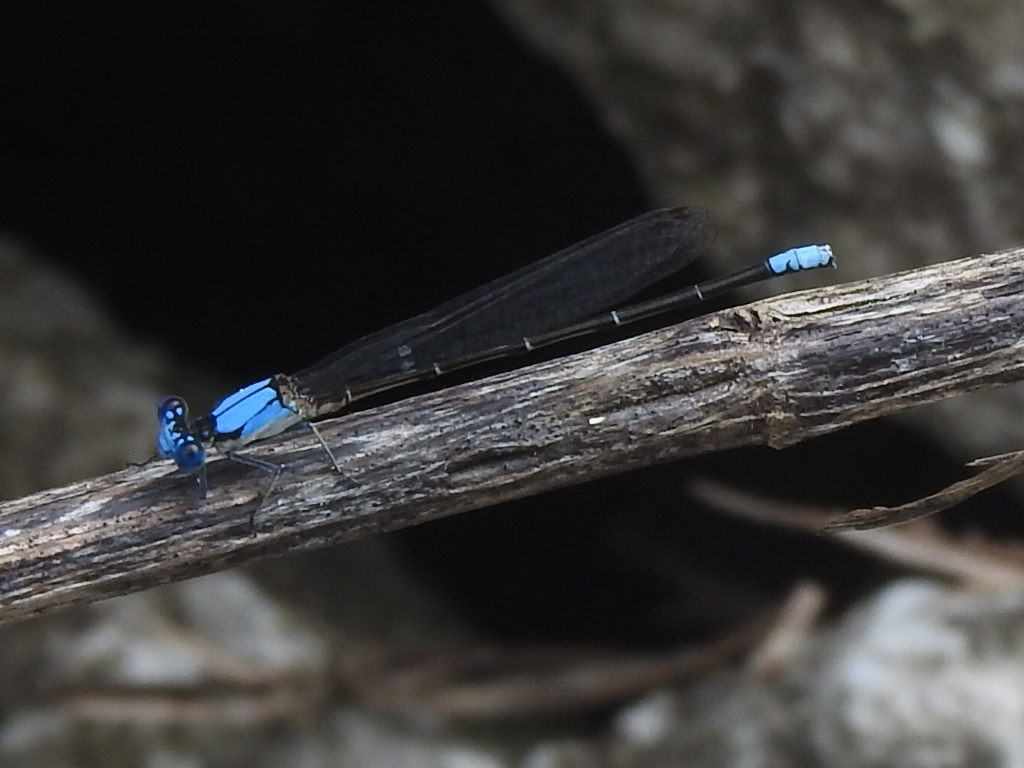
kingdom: Animalia
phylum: Arthropoda
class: Insecta
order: Odonata
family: Coenagrionidae
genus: Argia
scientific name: Argia apicalis
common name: Blue-fronted dancer
